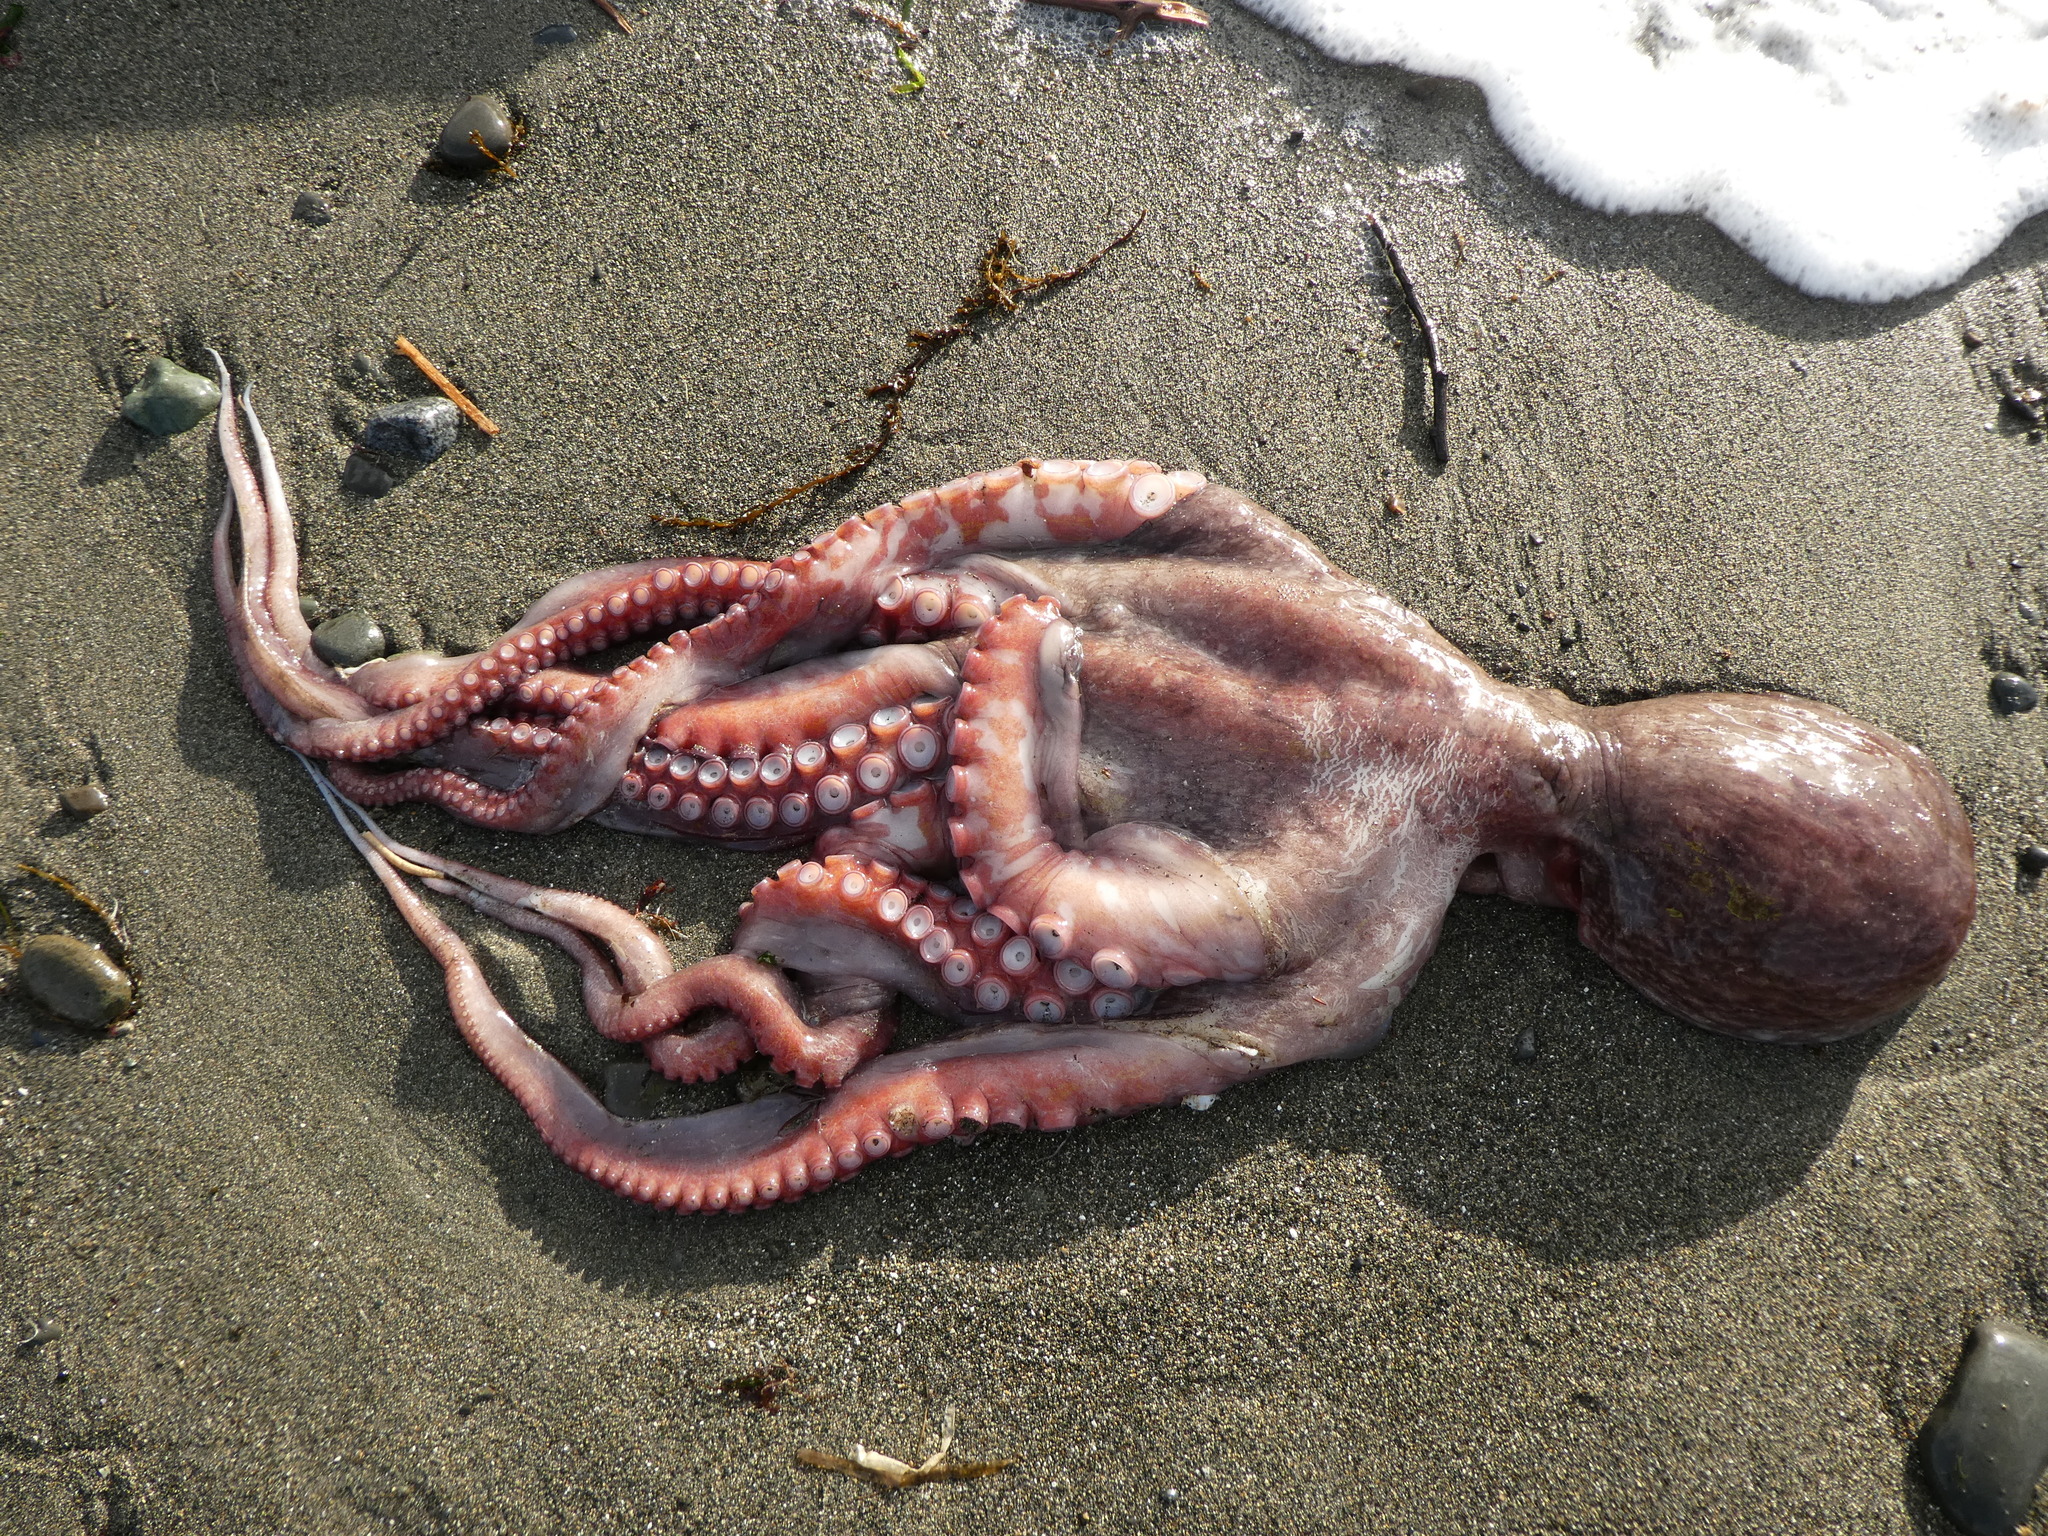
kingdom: Animalia
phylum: Mollusca
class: Cephalopoda
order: Octopoda
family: Enteroctopodidae
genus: Enteroctopus
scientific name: Enteroctopus dofleini
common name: Giant north pacific octopus
